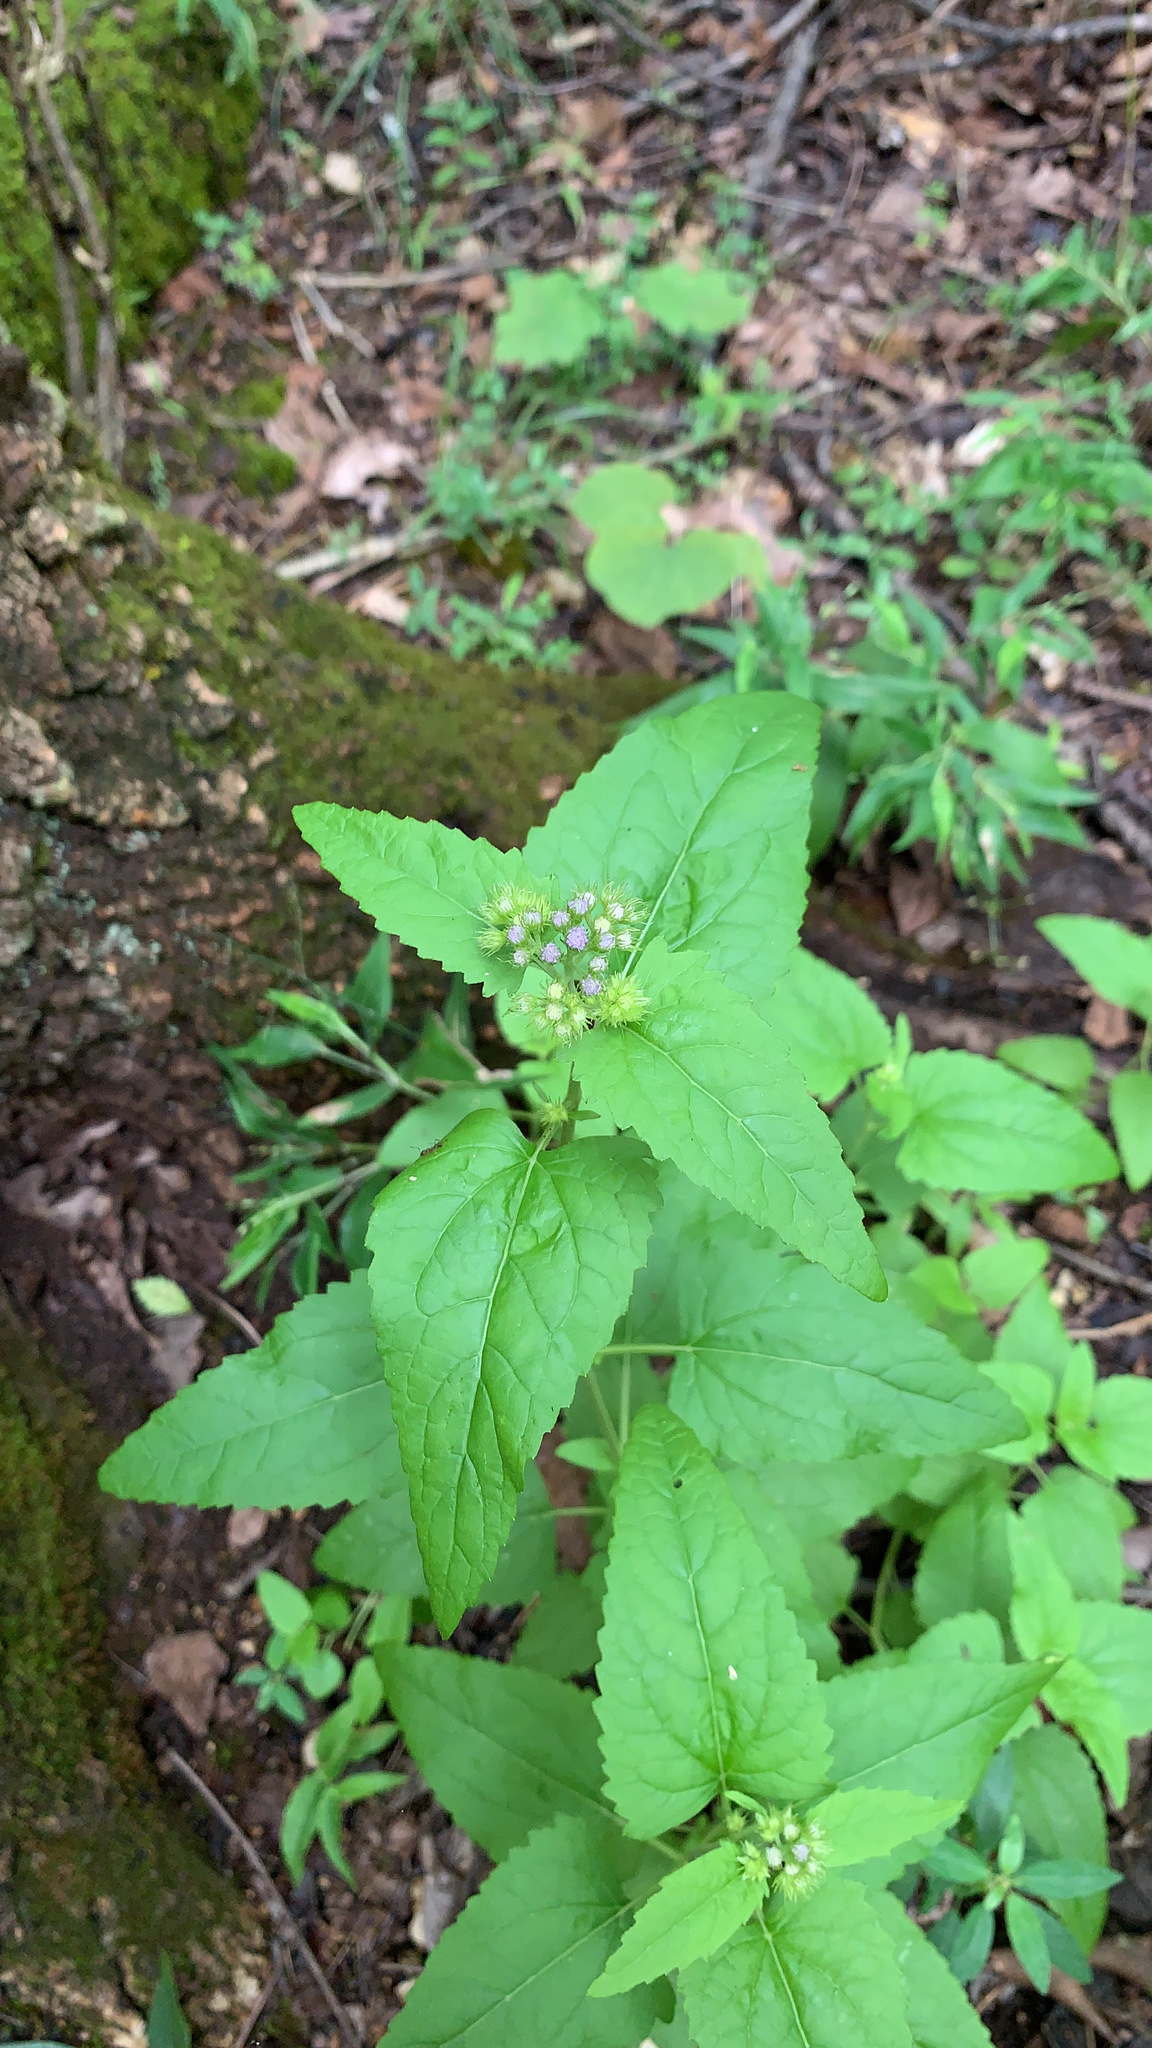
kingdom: Plantae
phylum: Tracheophyta
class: Magnoliopsida
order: Asterales
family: Asteraceae
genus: Conoclinium
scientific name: Conoclinium coelestinum
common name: Blue mistflower
